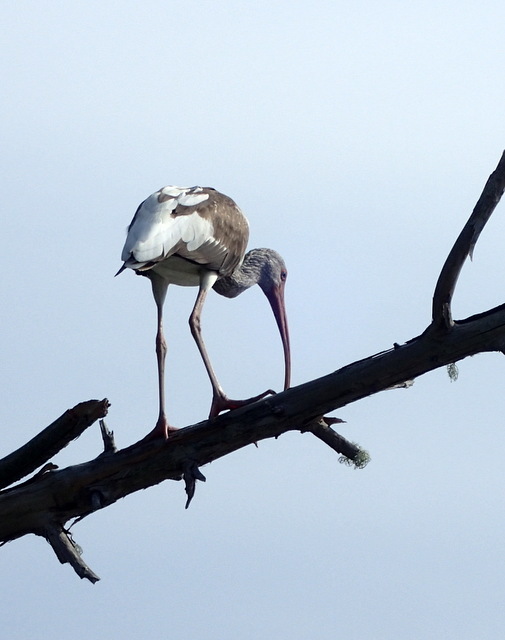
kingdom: Animalia
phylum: Chordata
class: Aves
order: Pelecaniformes
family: Threskiornithidae
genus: Eudocimus
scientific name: Eudocimus albus
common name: White ibis
